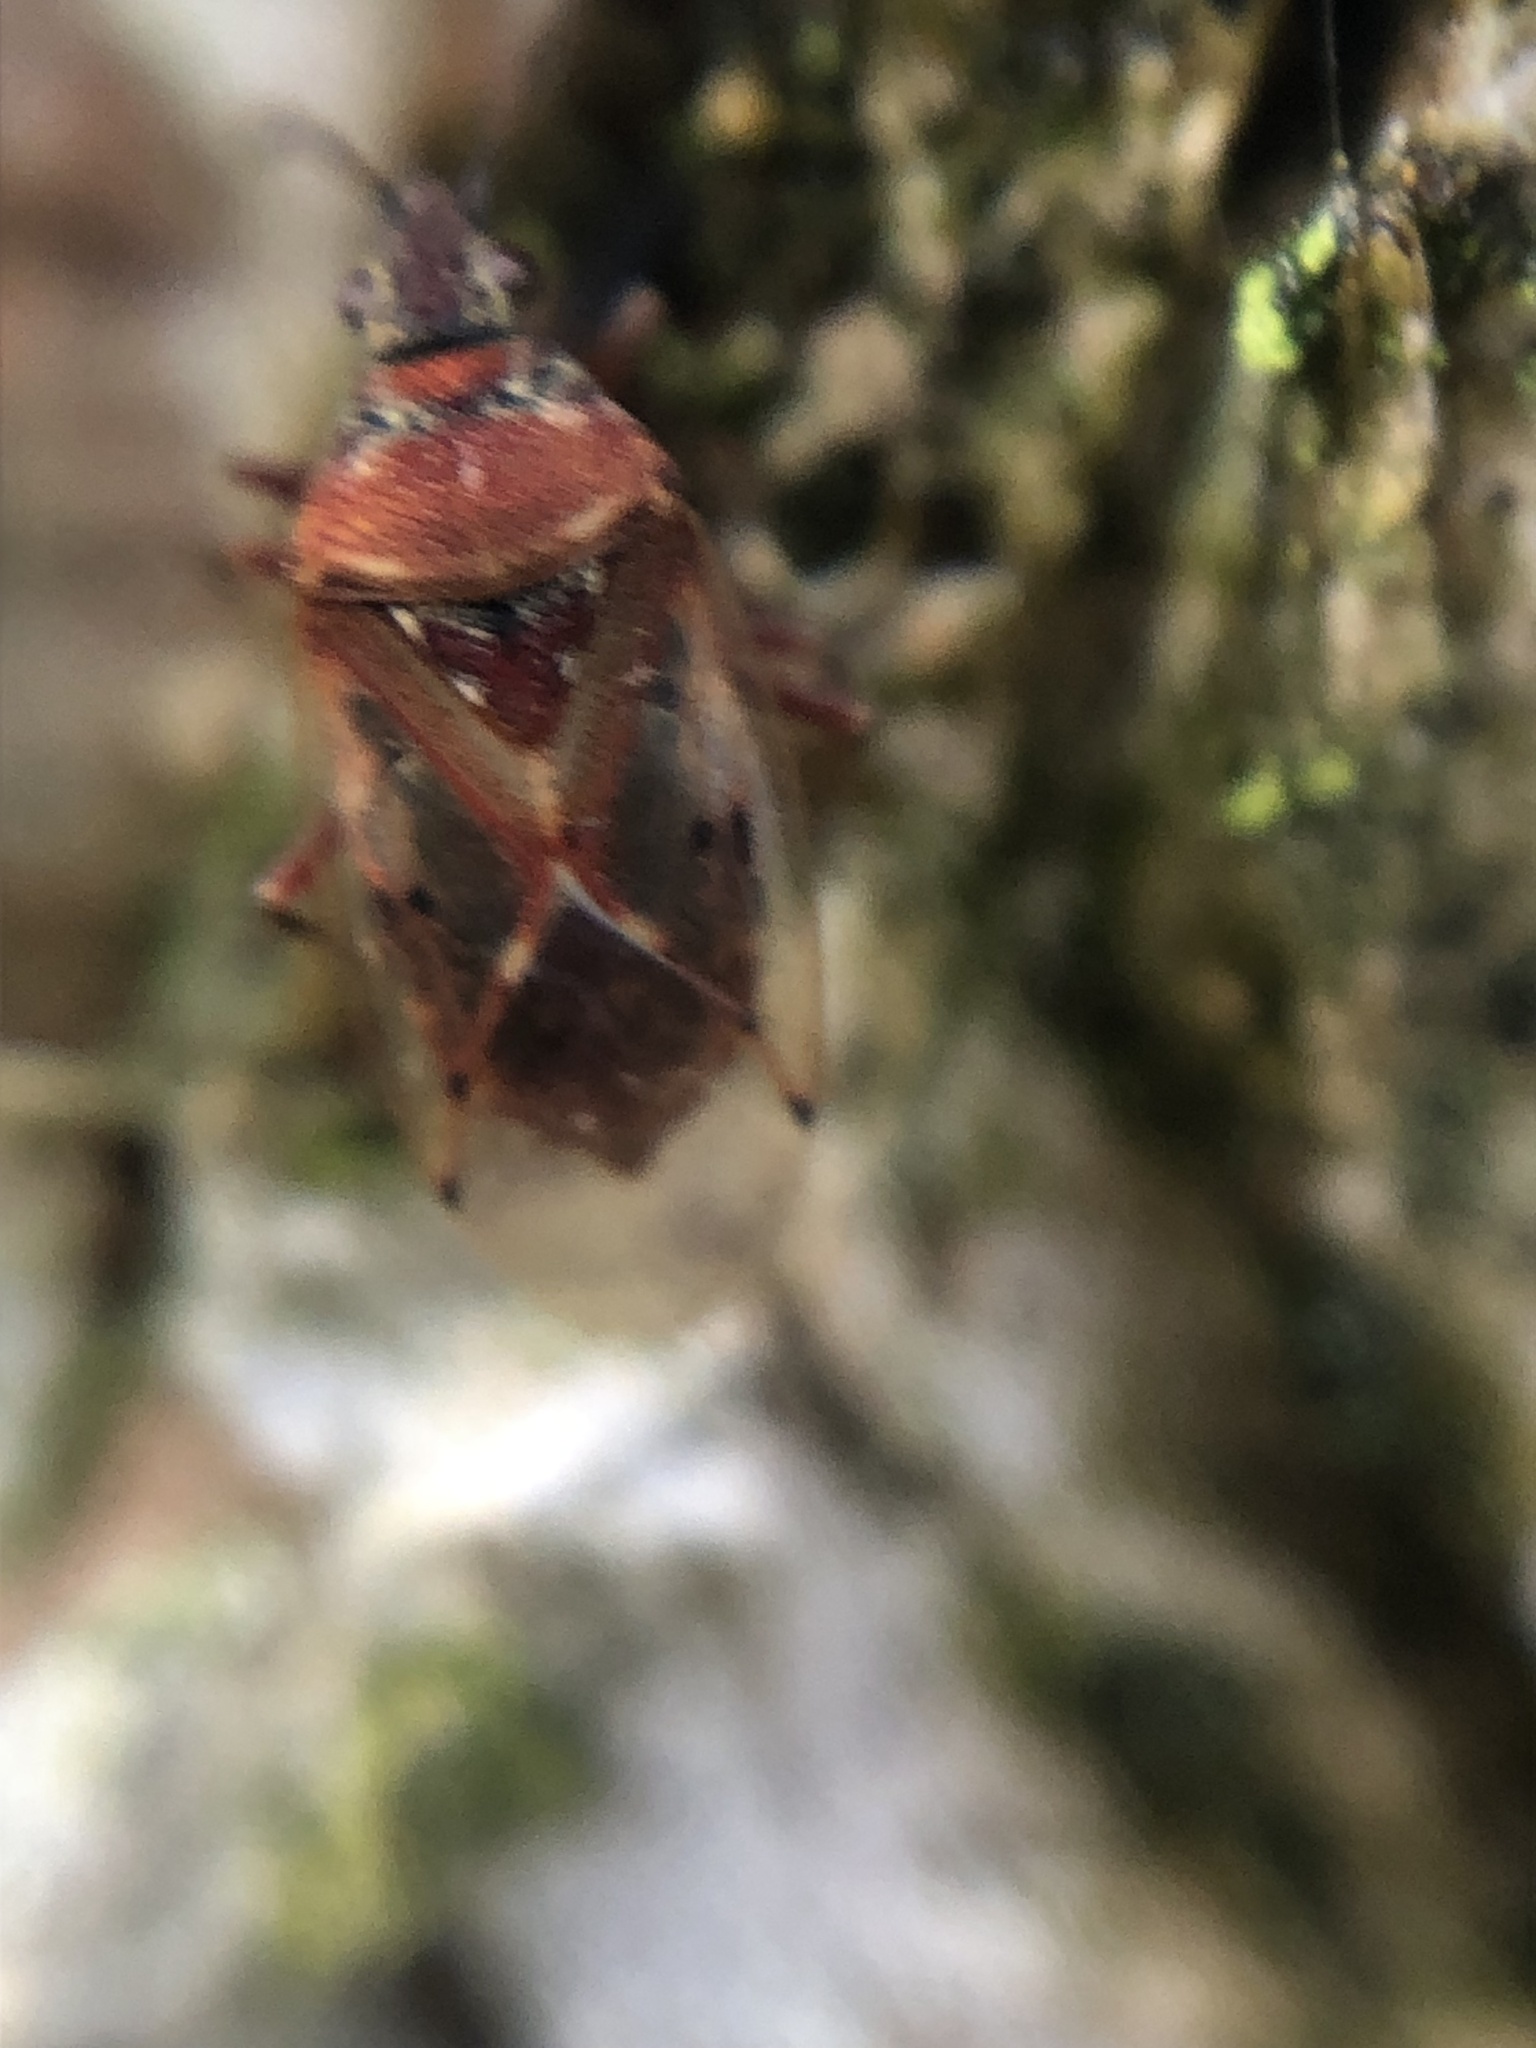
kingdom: Animalia
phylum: Arthropoda
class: Insecta
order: Hemiptera
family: Lygaeidae
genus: Kleidocerys
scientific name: Kleidocerys resedae
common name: Birch catkin bug
